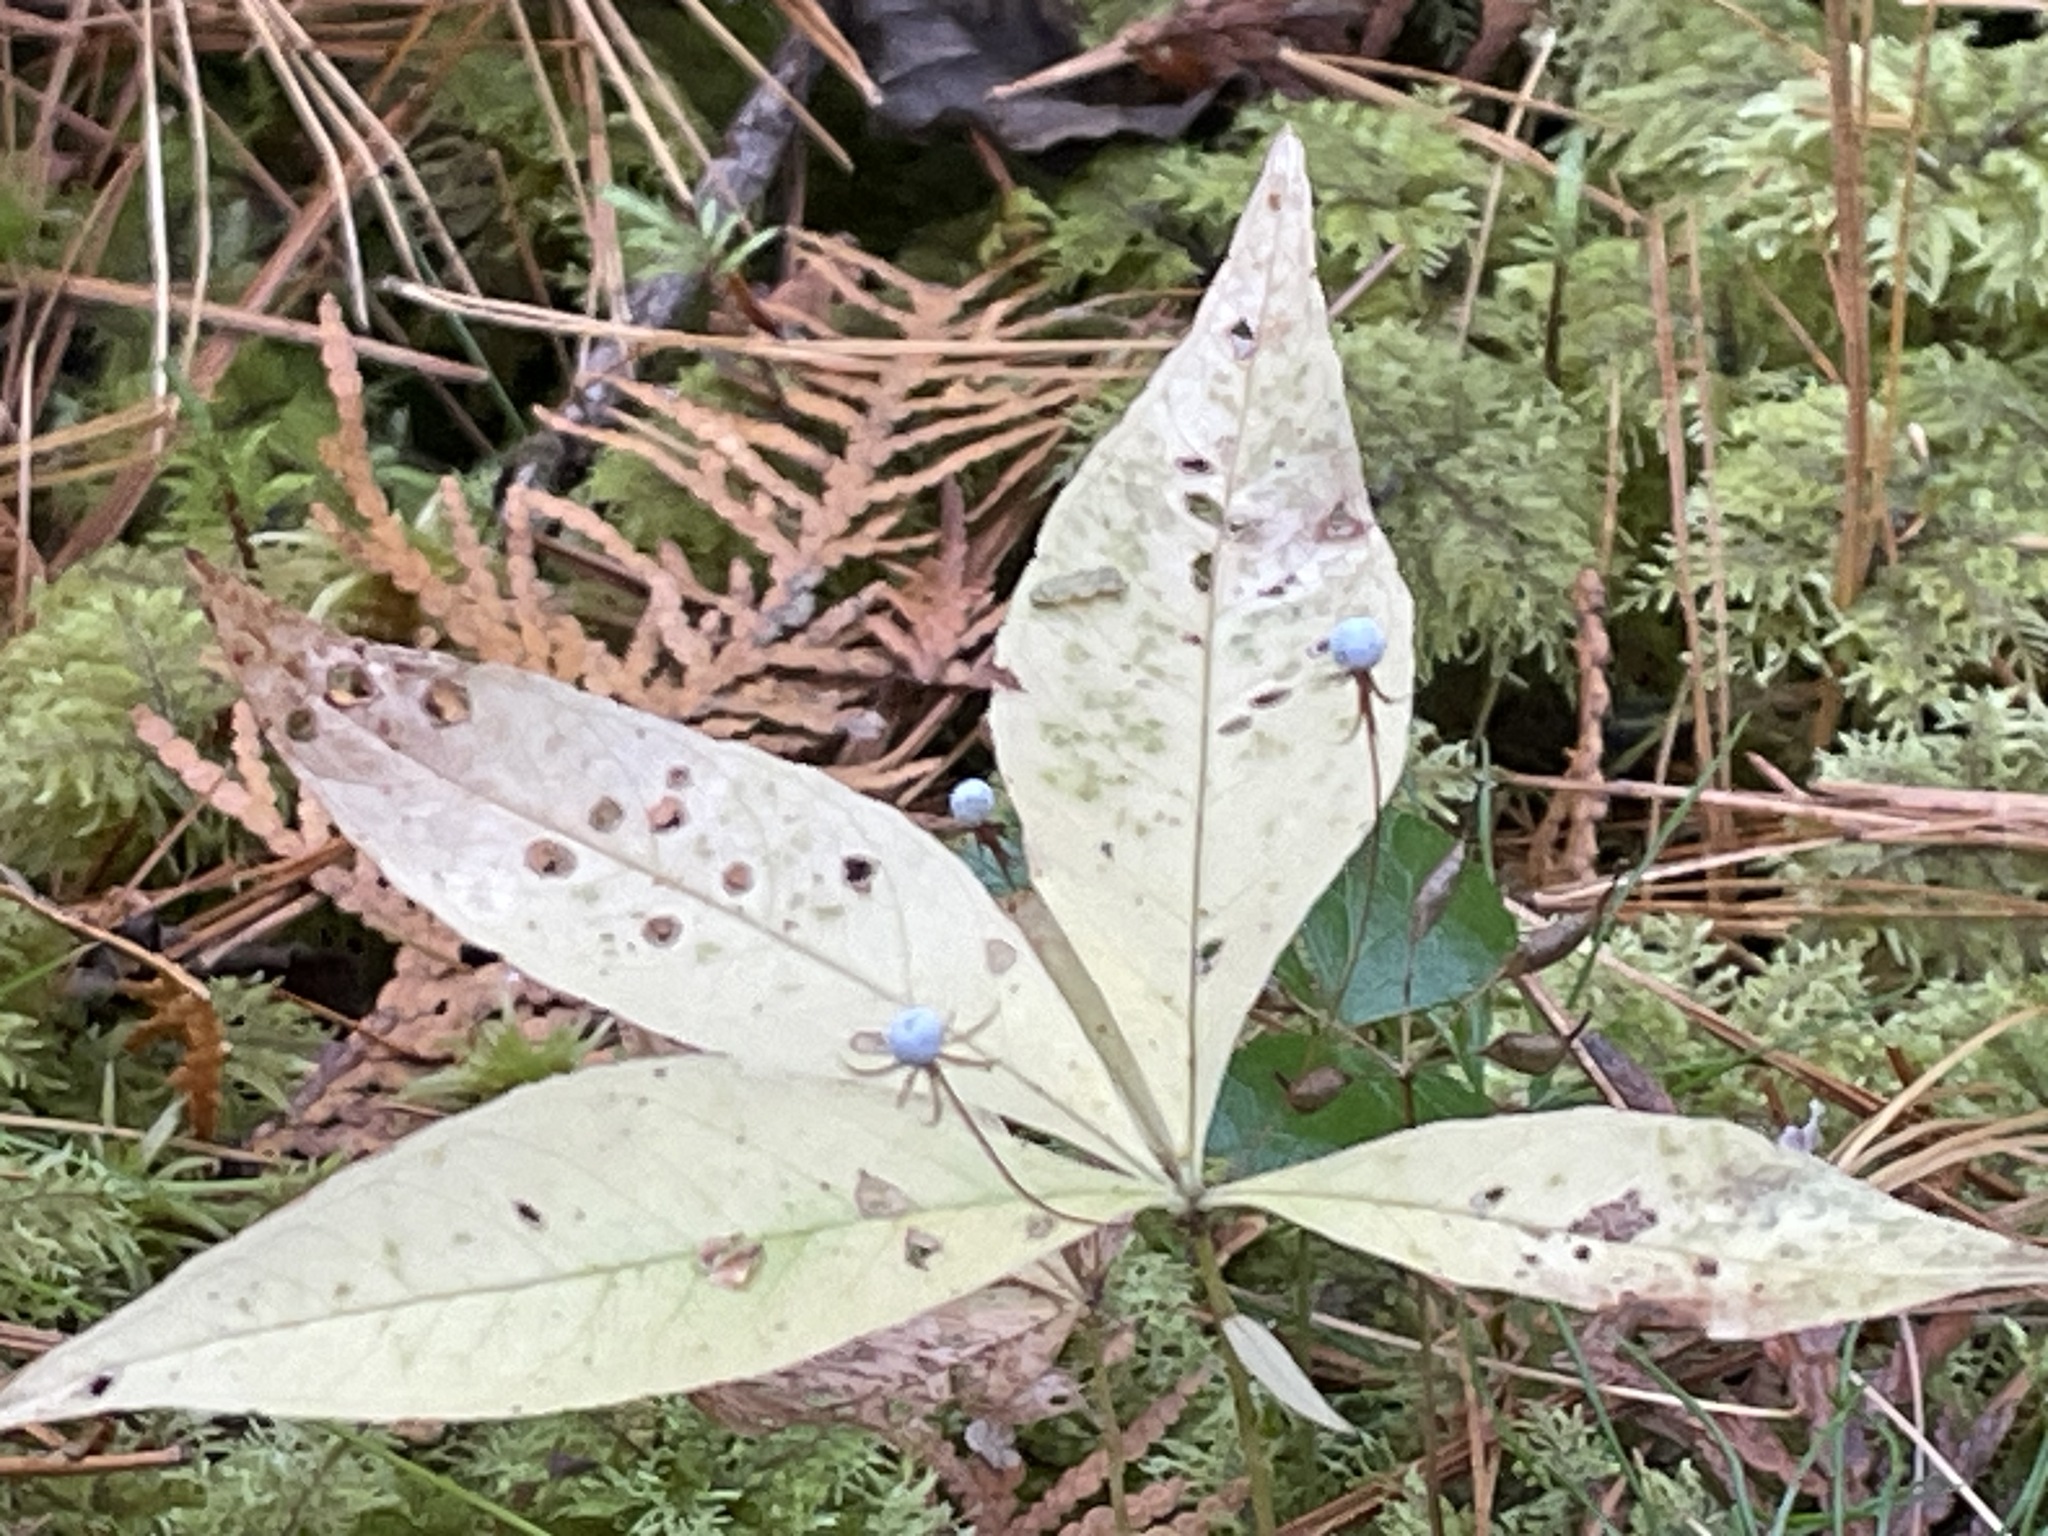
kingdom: Plantae
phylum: Tracheophyta
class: Magnoliopsida
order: Ericales
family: Primulaceae
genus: Lysimachia
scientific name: Lysimachia borealis
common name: American starflower
